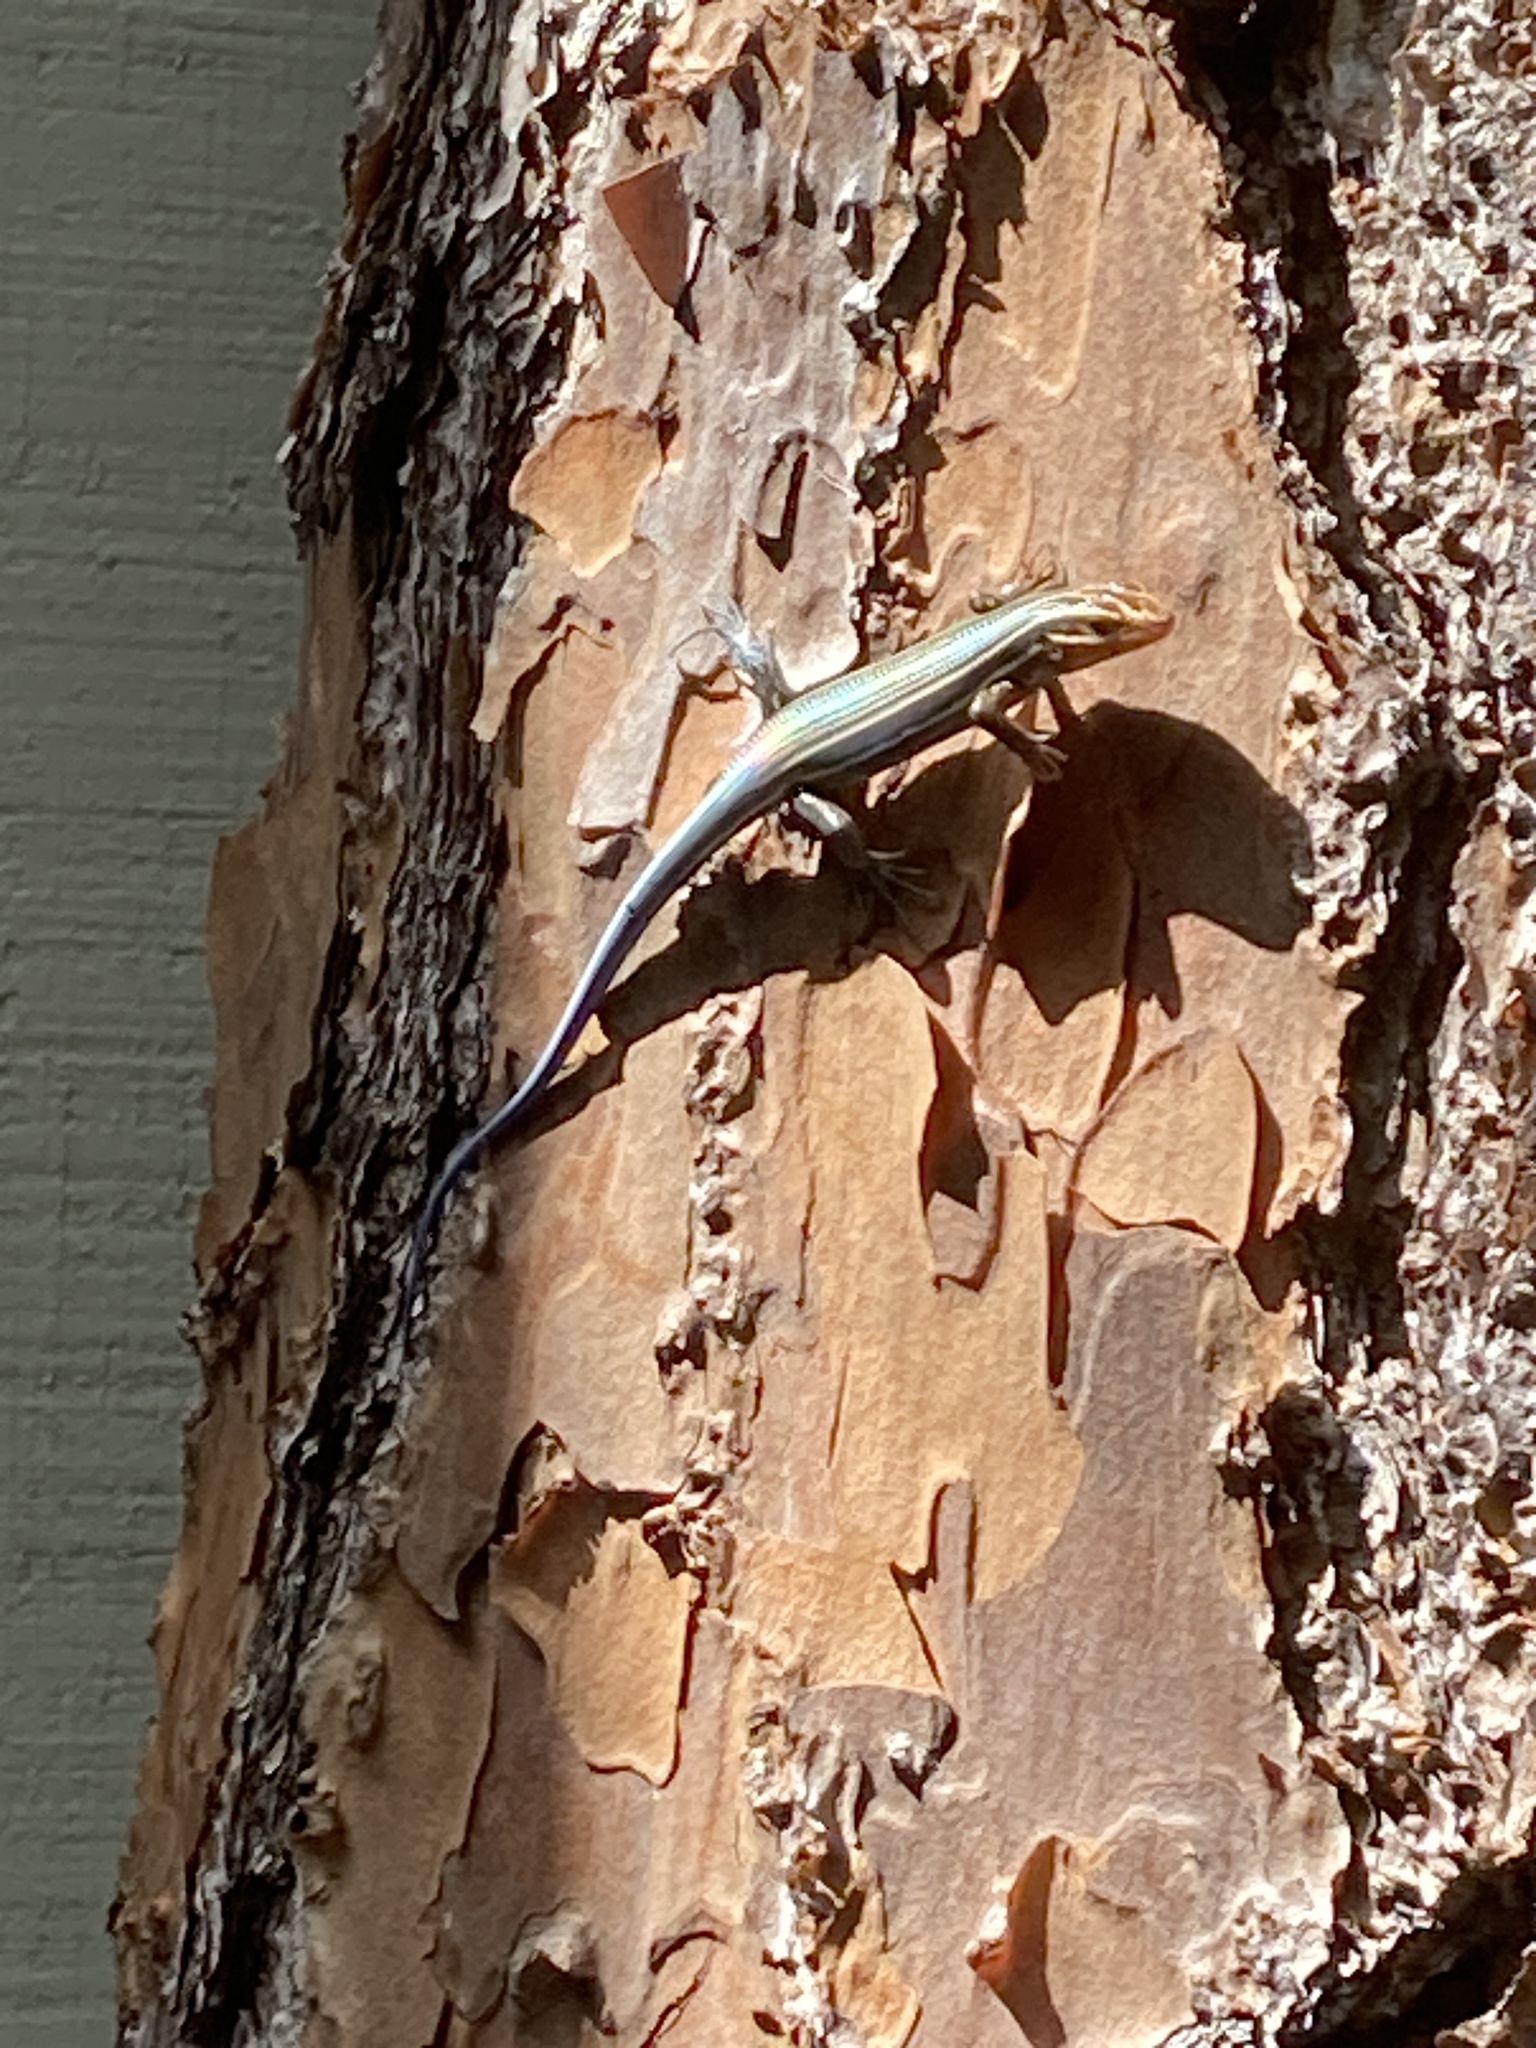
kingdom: Animalia
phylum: Chordata
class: Squamata
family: Scincidae
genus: Plestiodon
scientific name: Plestiodon inexpectatus
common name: Southeastern five-lined skink
